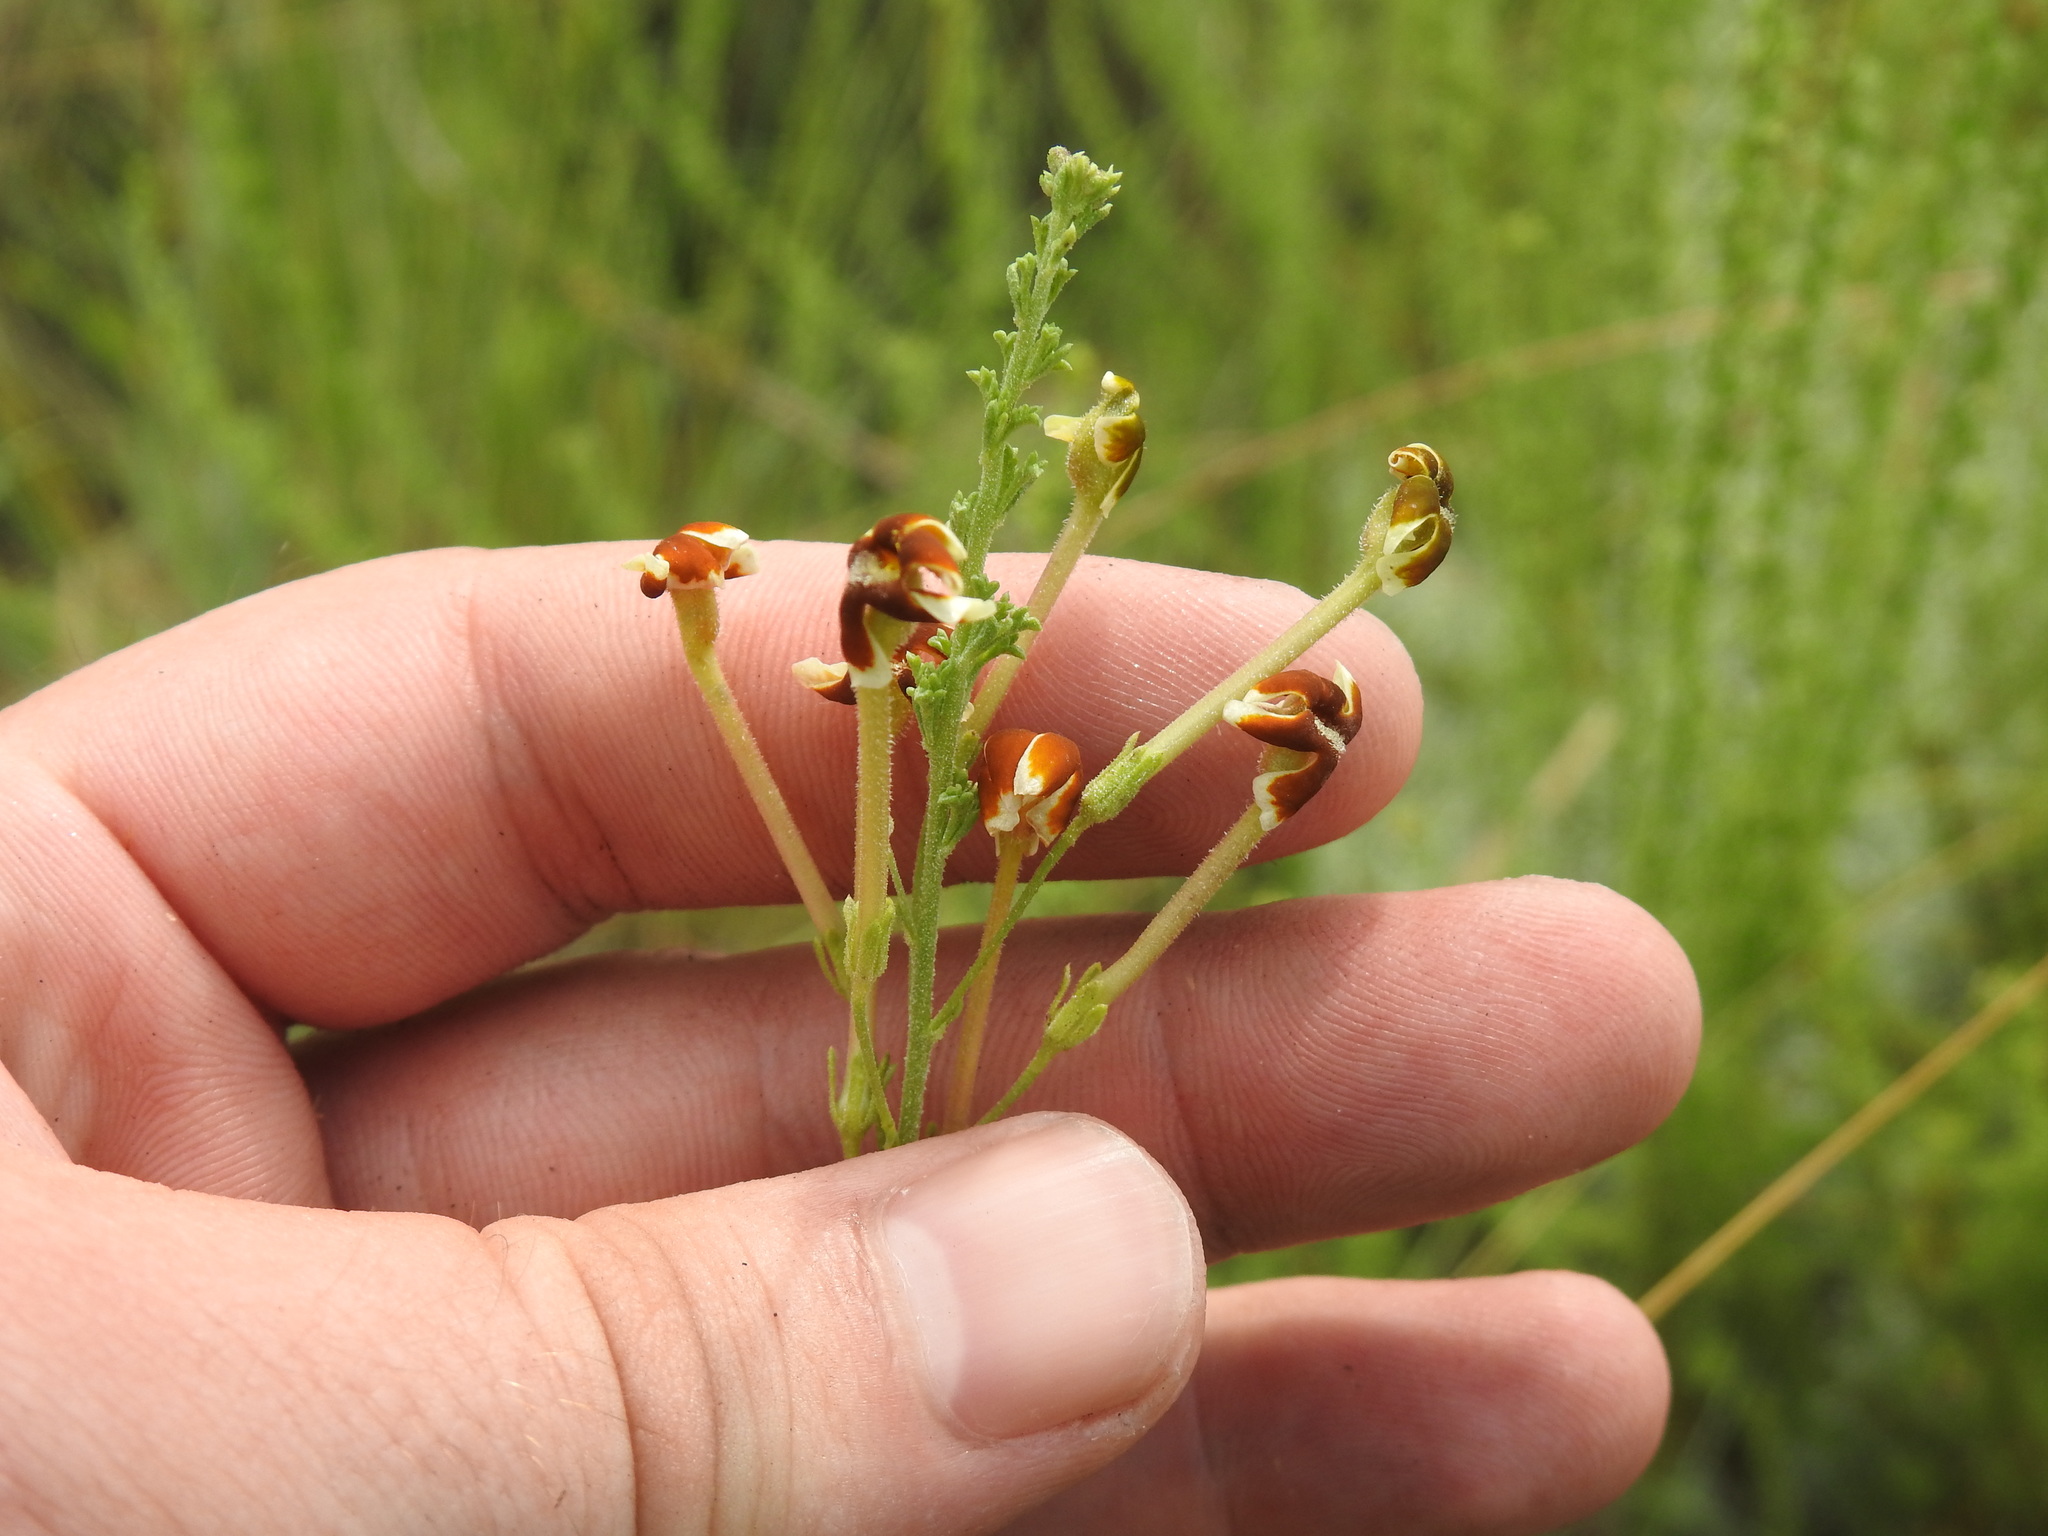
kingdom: Plantae
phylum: Tracheophyta
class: Magnoliopsida
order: Lamiales
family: Scrophulariaceae
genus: Jamesbrittenia
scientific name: Jamesbrittenia burkeana
